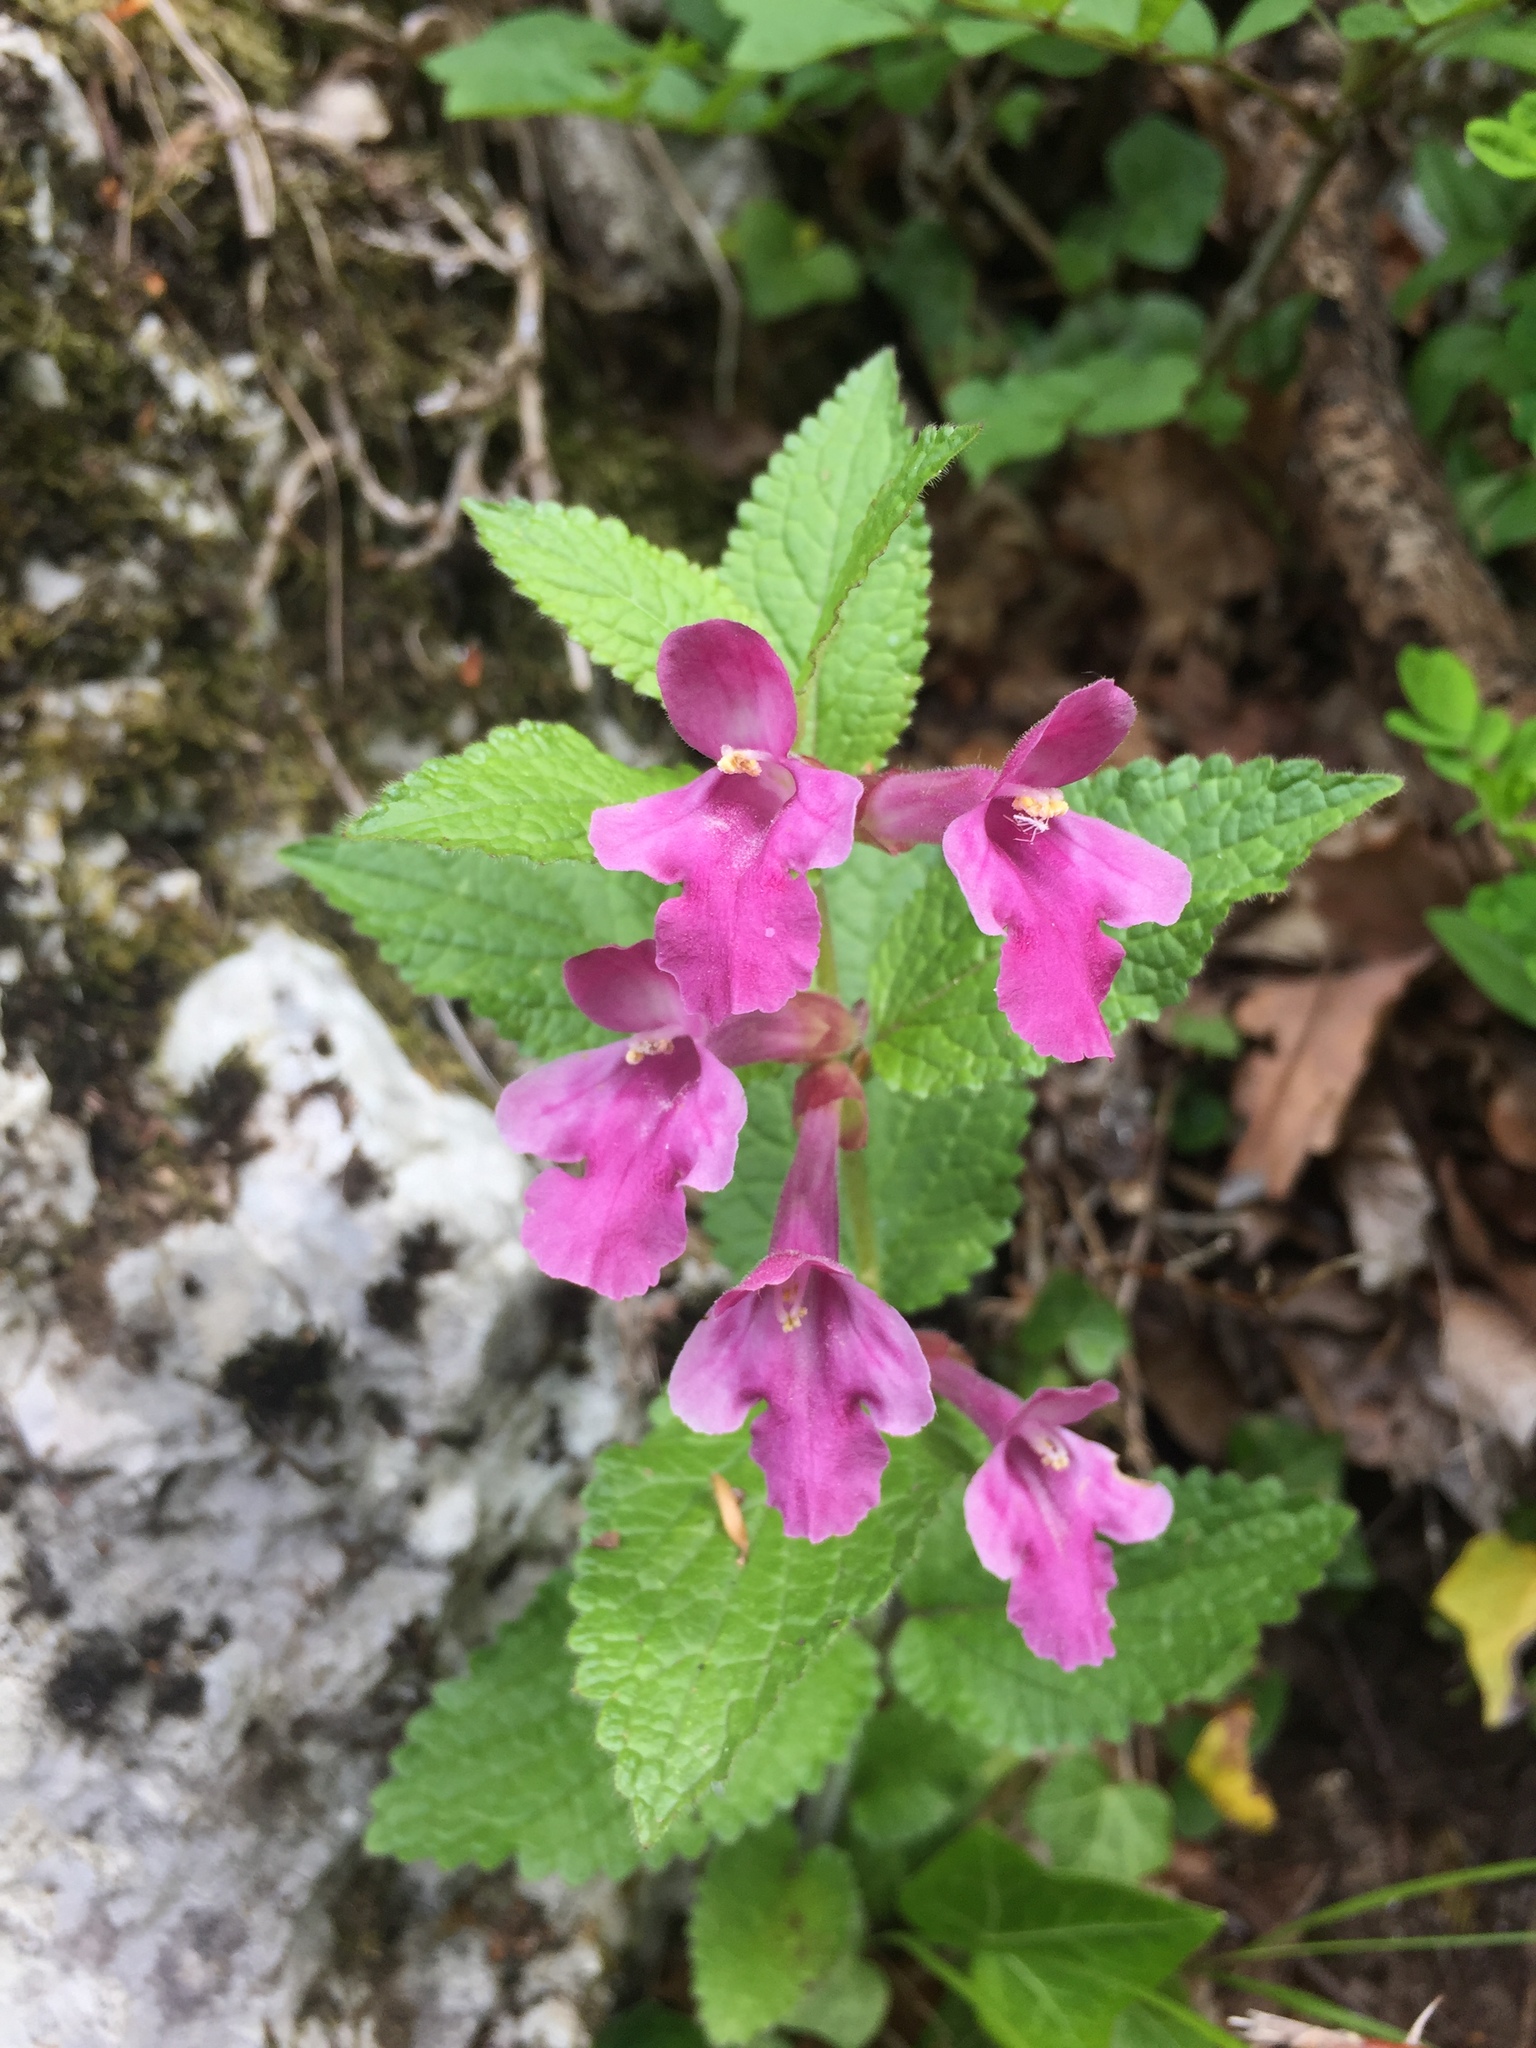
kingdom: Plantae
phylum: Tracheophyta
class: Magnoliopsida
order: Lamiales
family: Lamiaceae
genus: Melittis
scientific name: Melittis melissophyllum
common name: Bastard balm
